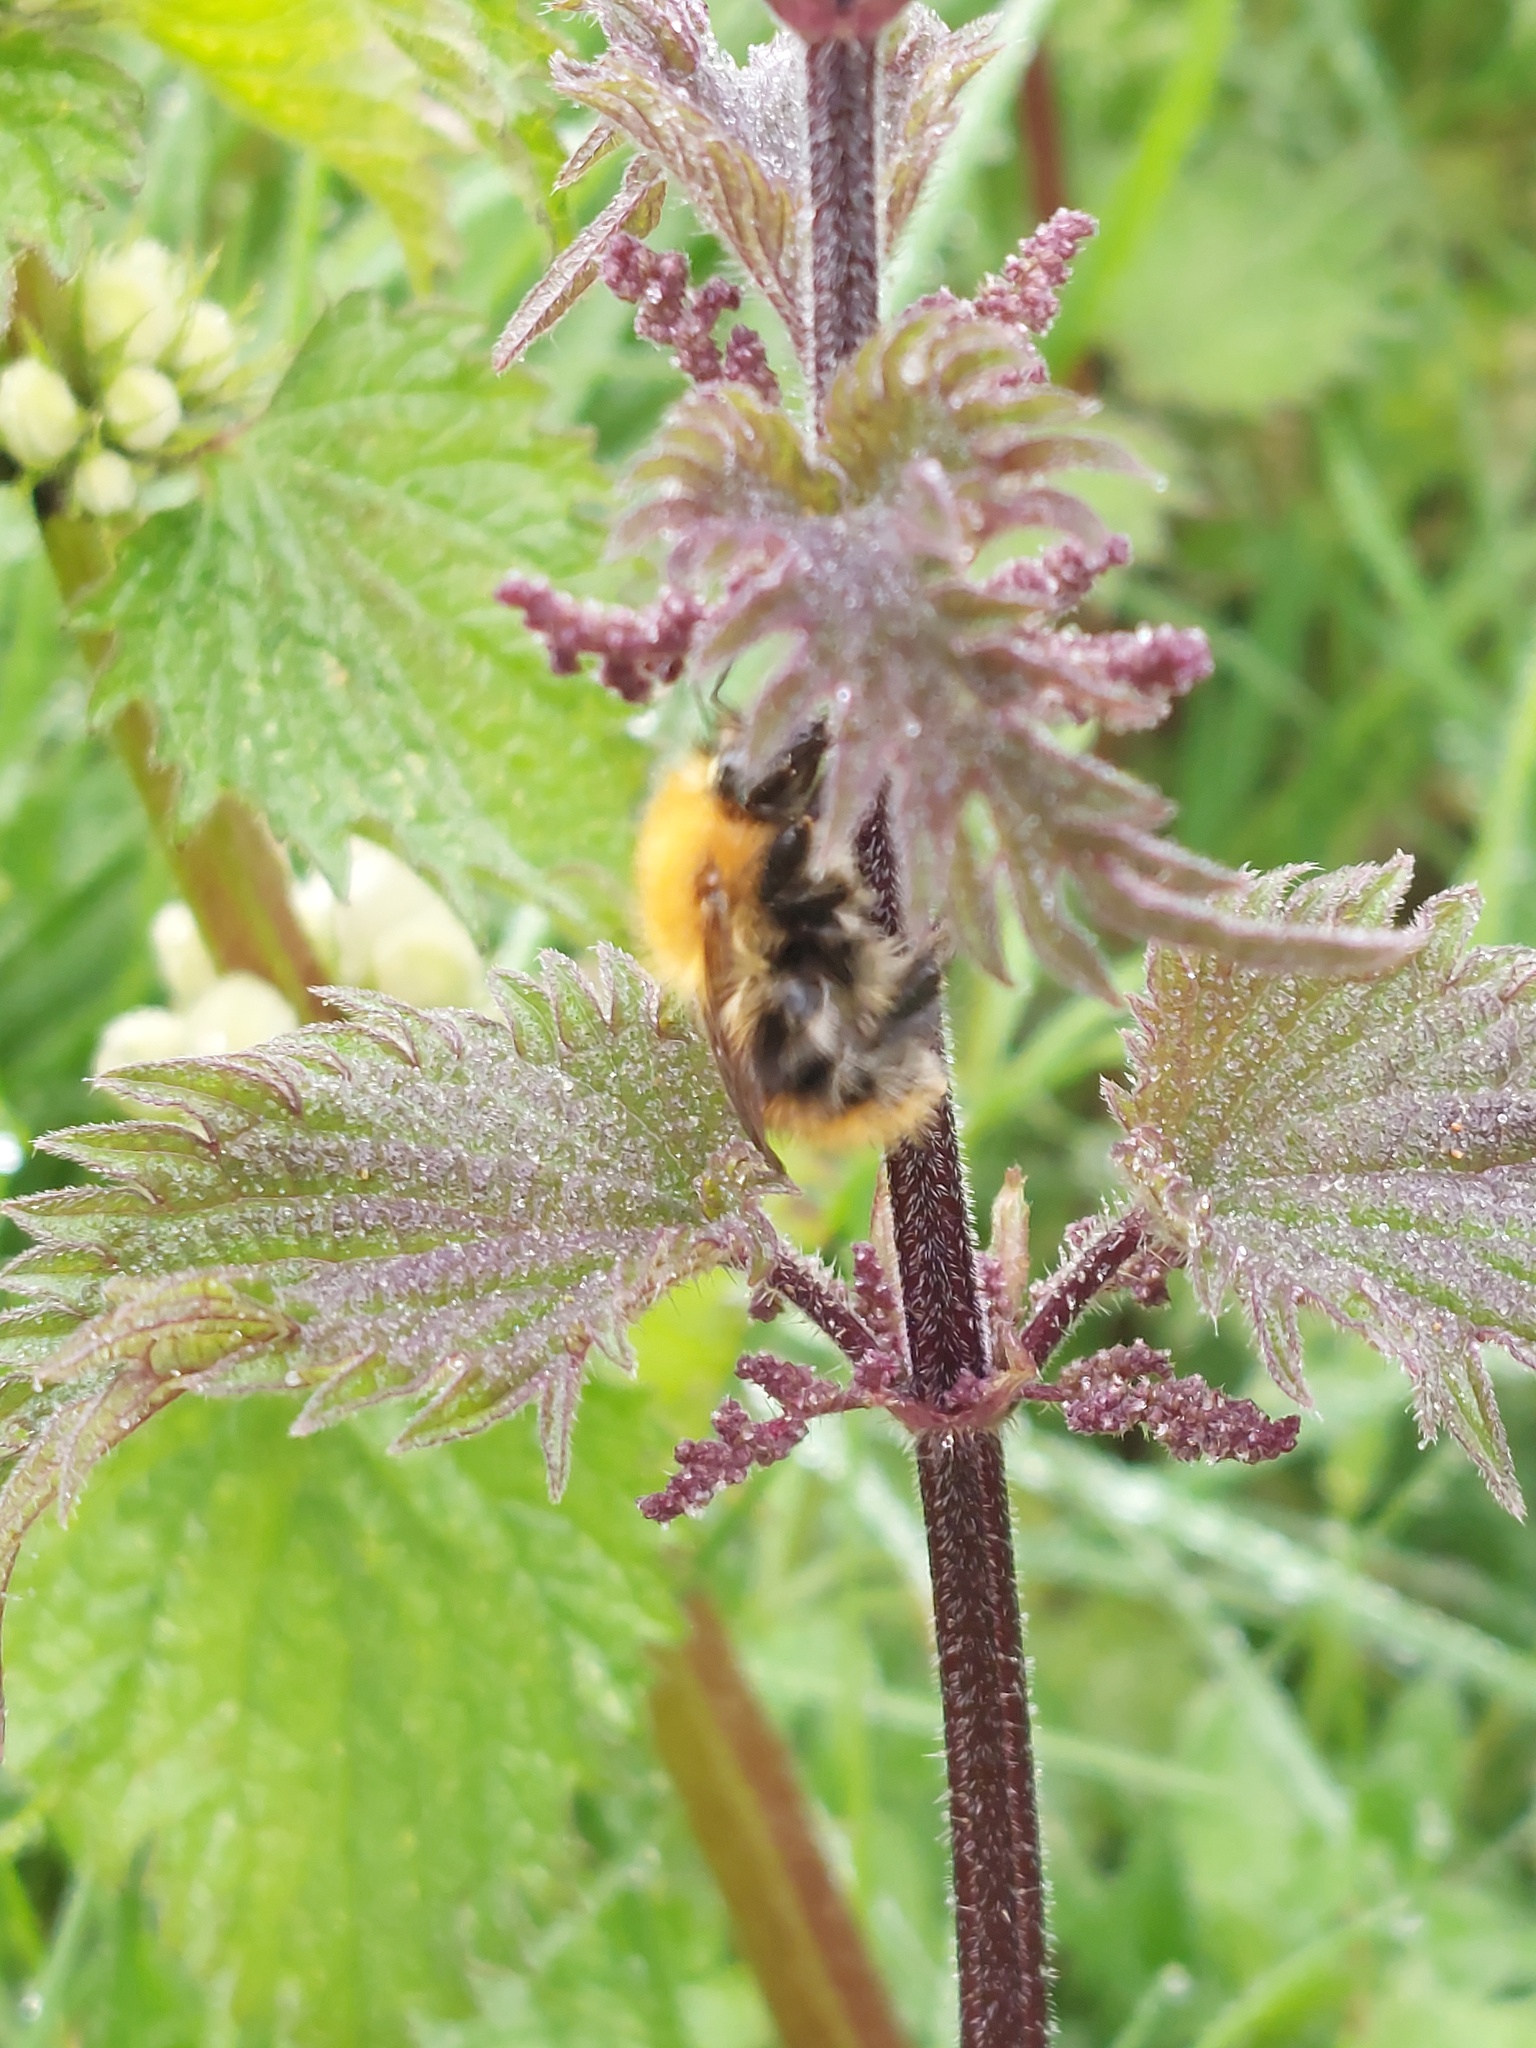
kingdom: Animalia
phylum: Arthropoda
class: Insecta
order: Hymenoptera
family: Apidae
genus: Bombus
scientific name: Bombus pascuorum
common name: Common carder bee
